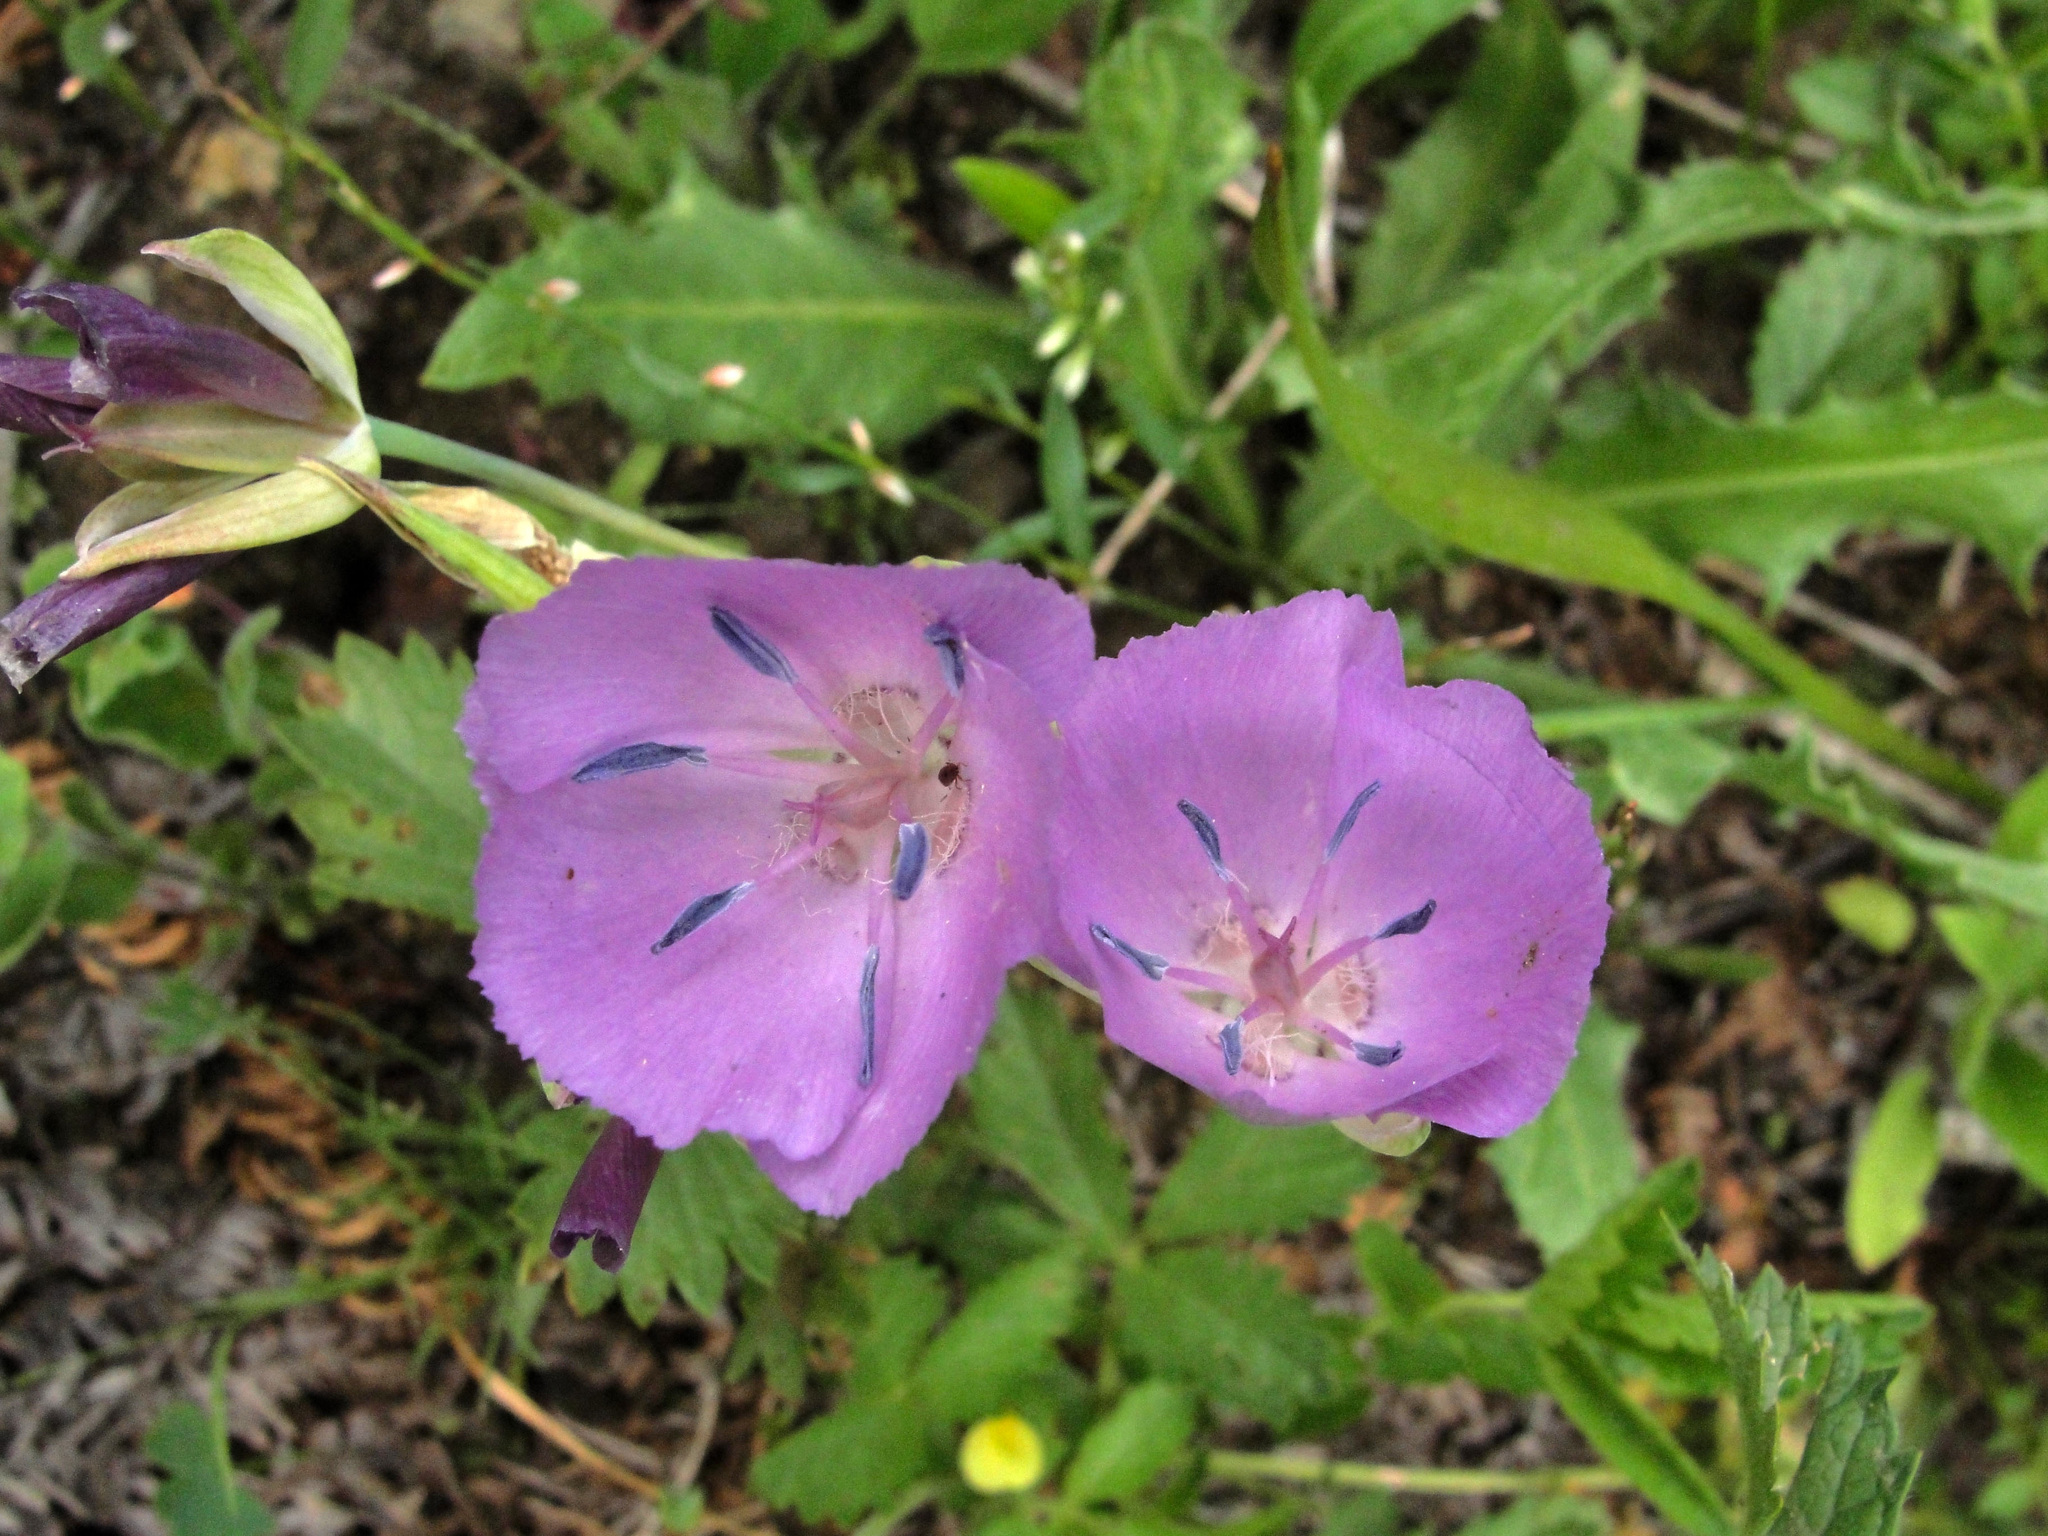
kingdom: Plantae
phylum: Tracheophyta
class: Liliopsida
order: Liliales
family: Liliaceae
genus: Calochortus
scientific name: Calochortus nudus
